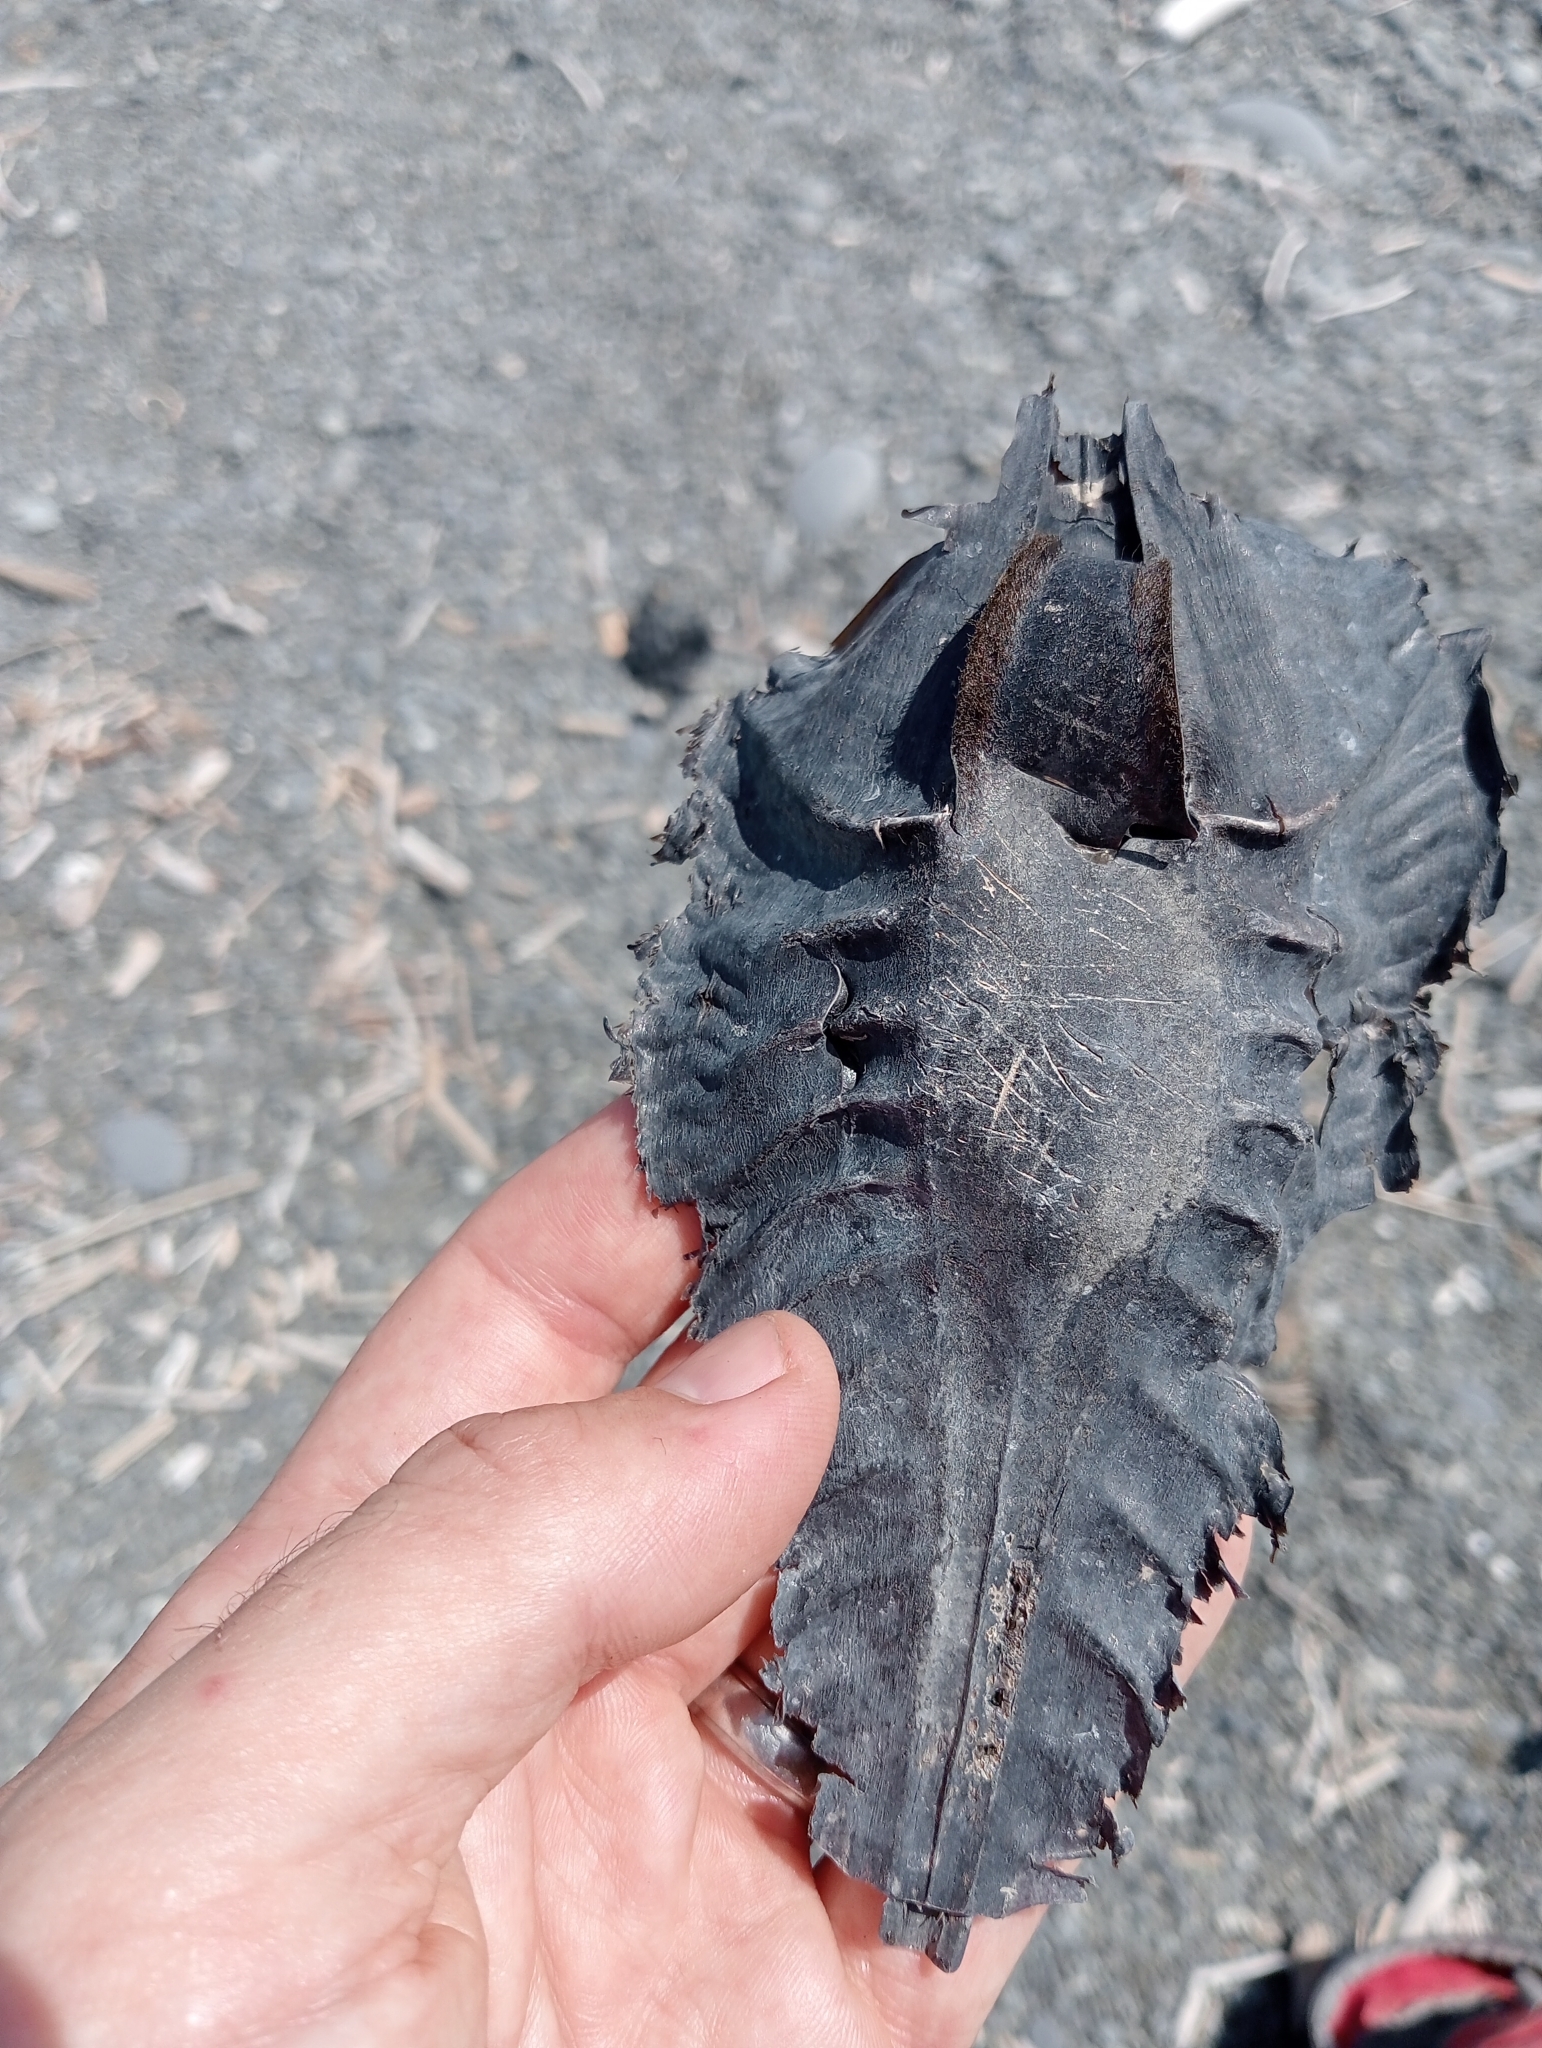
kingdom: Animalia
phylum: Chordata
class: Holocephali
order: Chimaeriformes
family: Callorhinchidae
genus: Callorhinchus
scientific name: Callorhinchus milii
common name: Elephant fish
